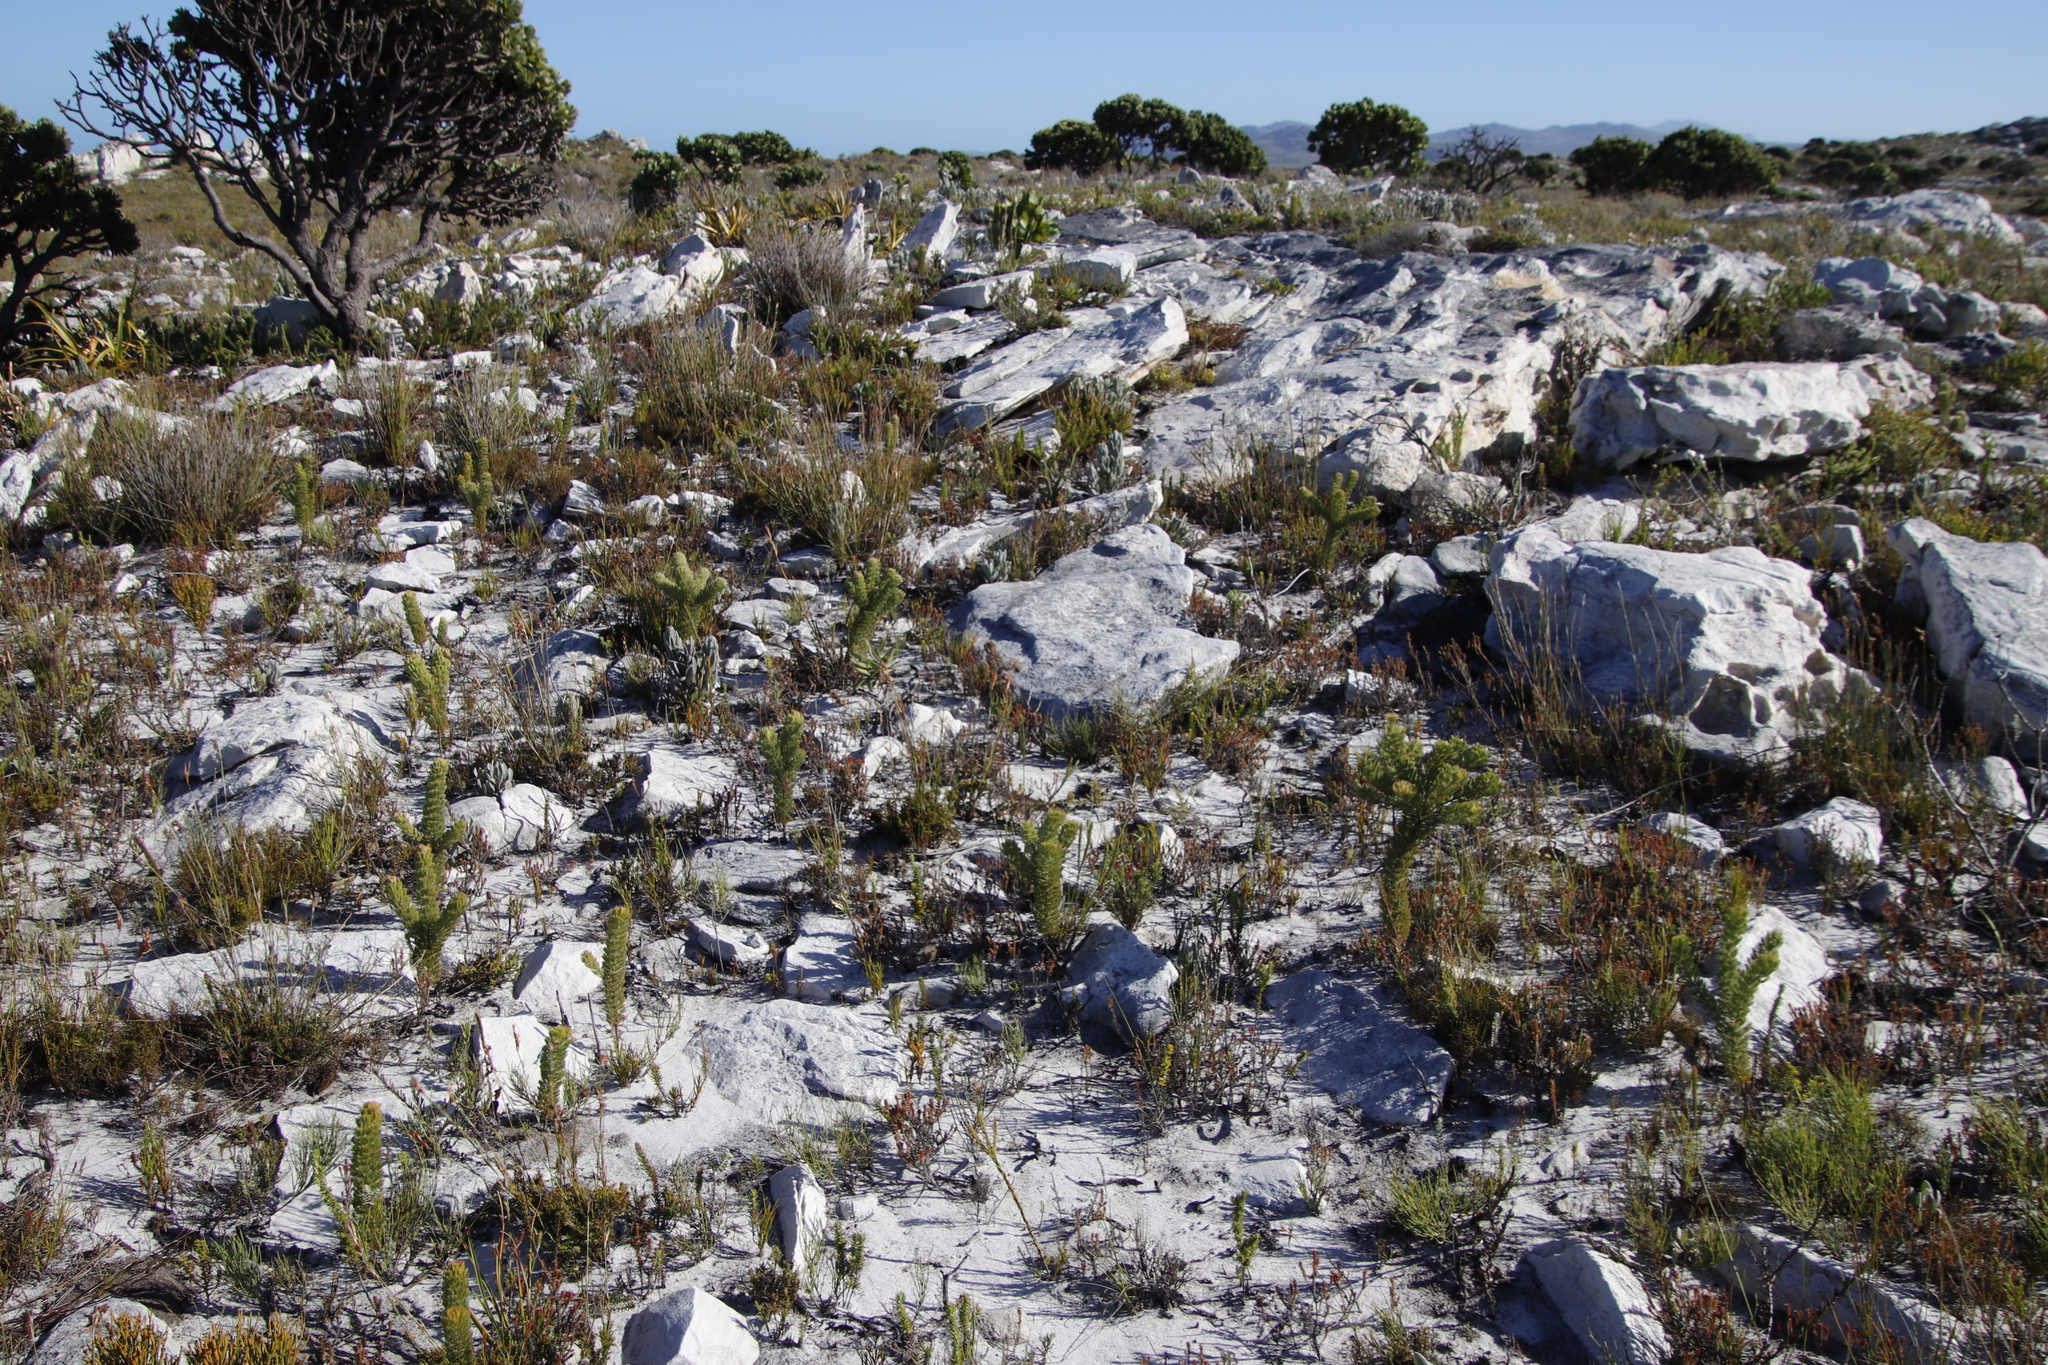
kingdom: Plantae
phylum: Tracheophyta
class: Magnoliopsida
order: Proteales
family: Proteaceae
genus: Serruria
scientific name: Serruria villosa
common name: Golden spiderhead
